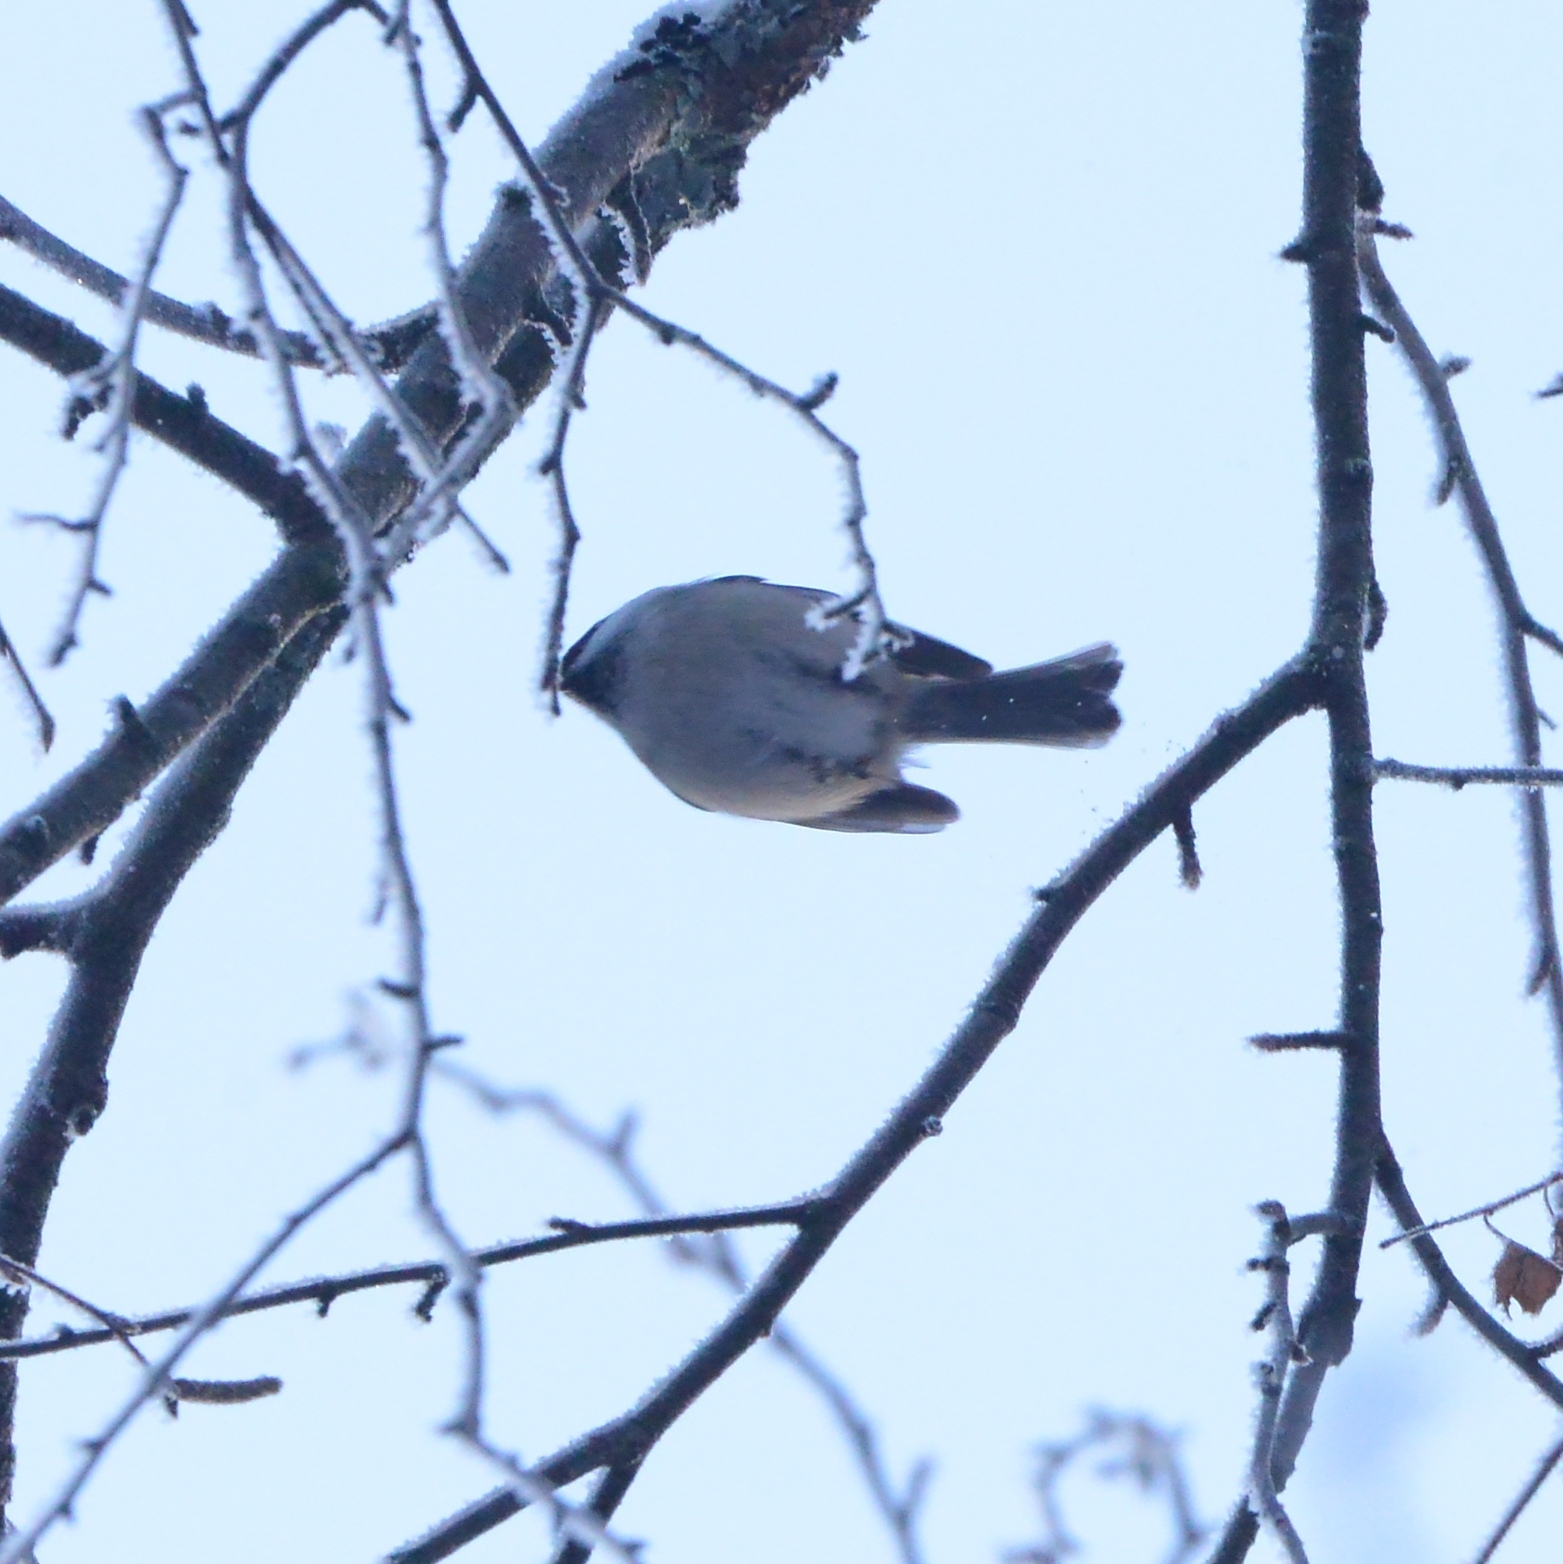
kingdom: Animalia
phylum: Chordata
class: Aves
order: Passeriformes
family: Paridae
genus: Poecile
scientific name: Poecile montanus
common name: Willow tit
